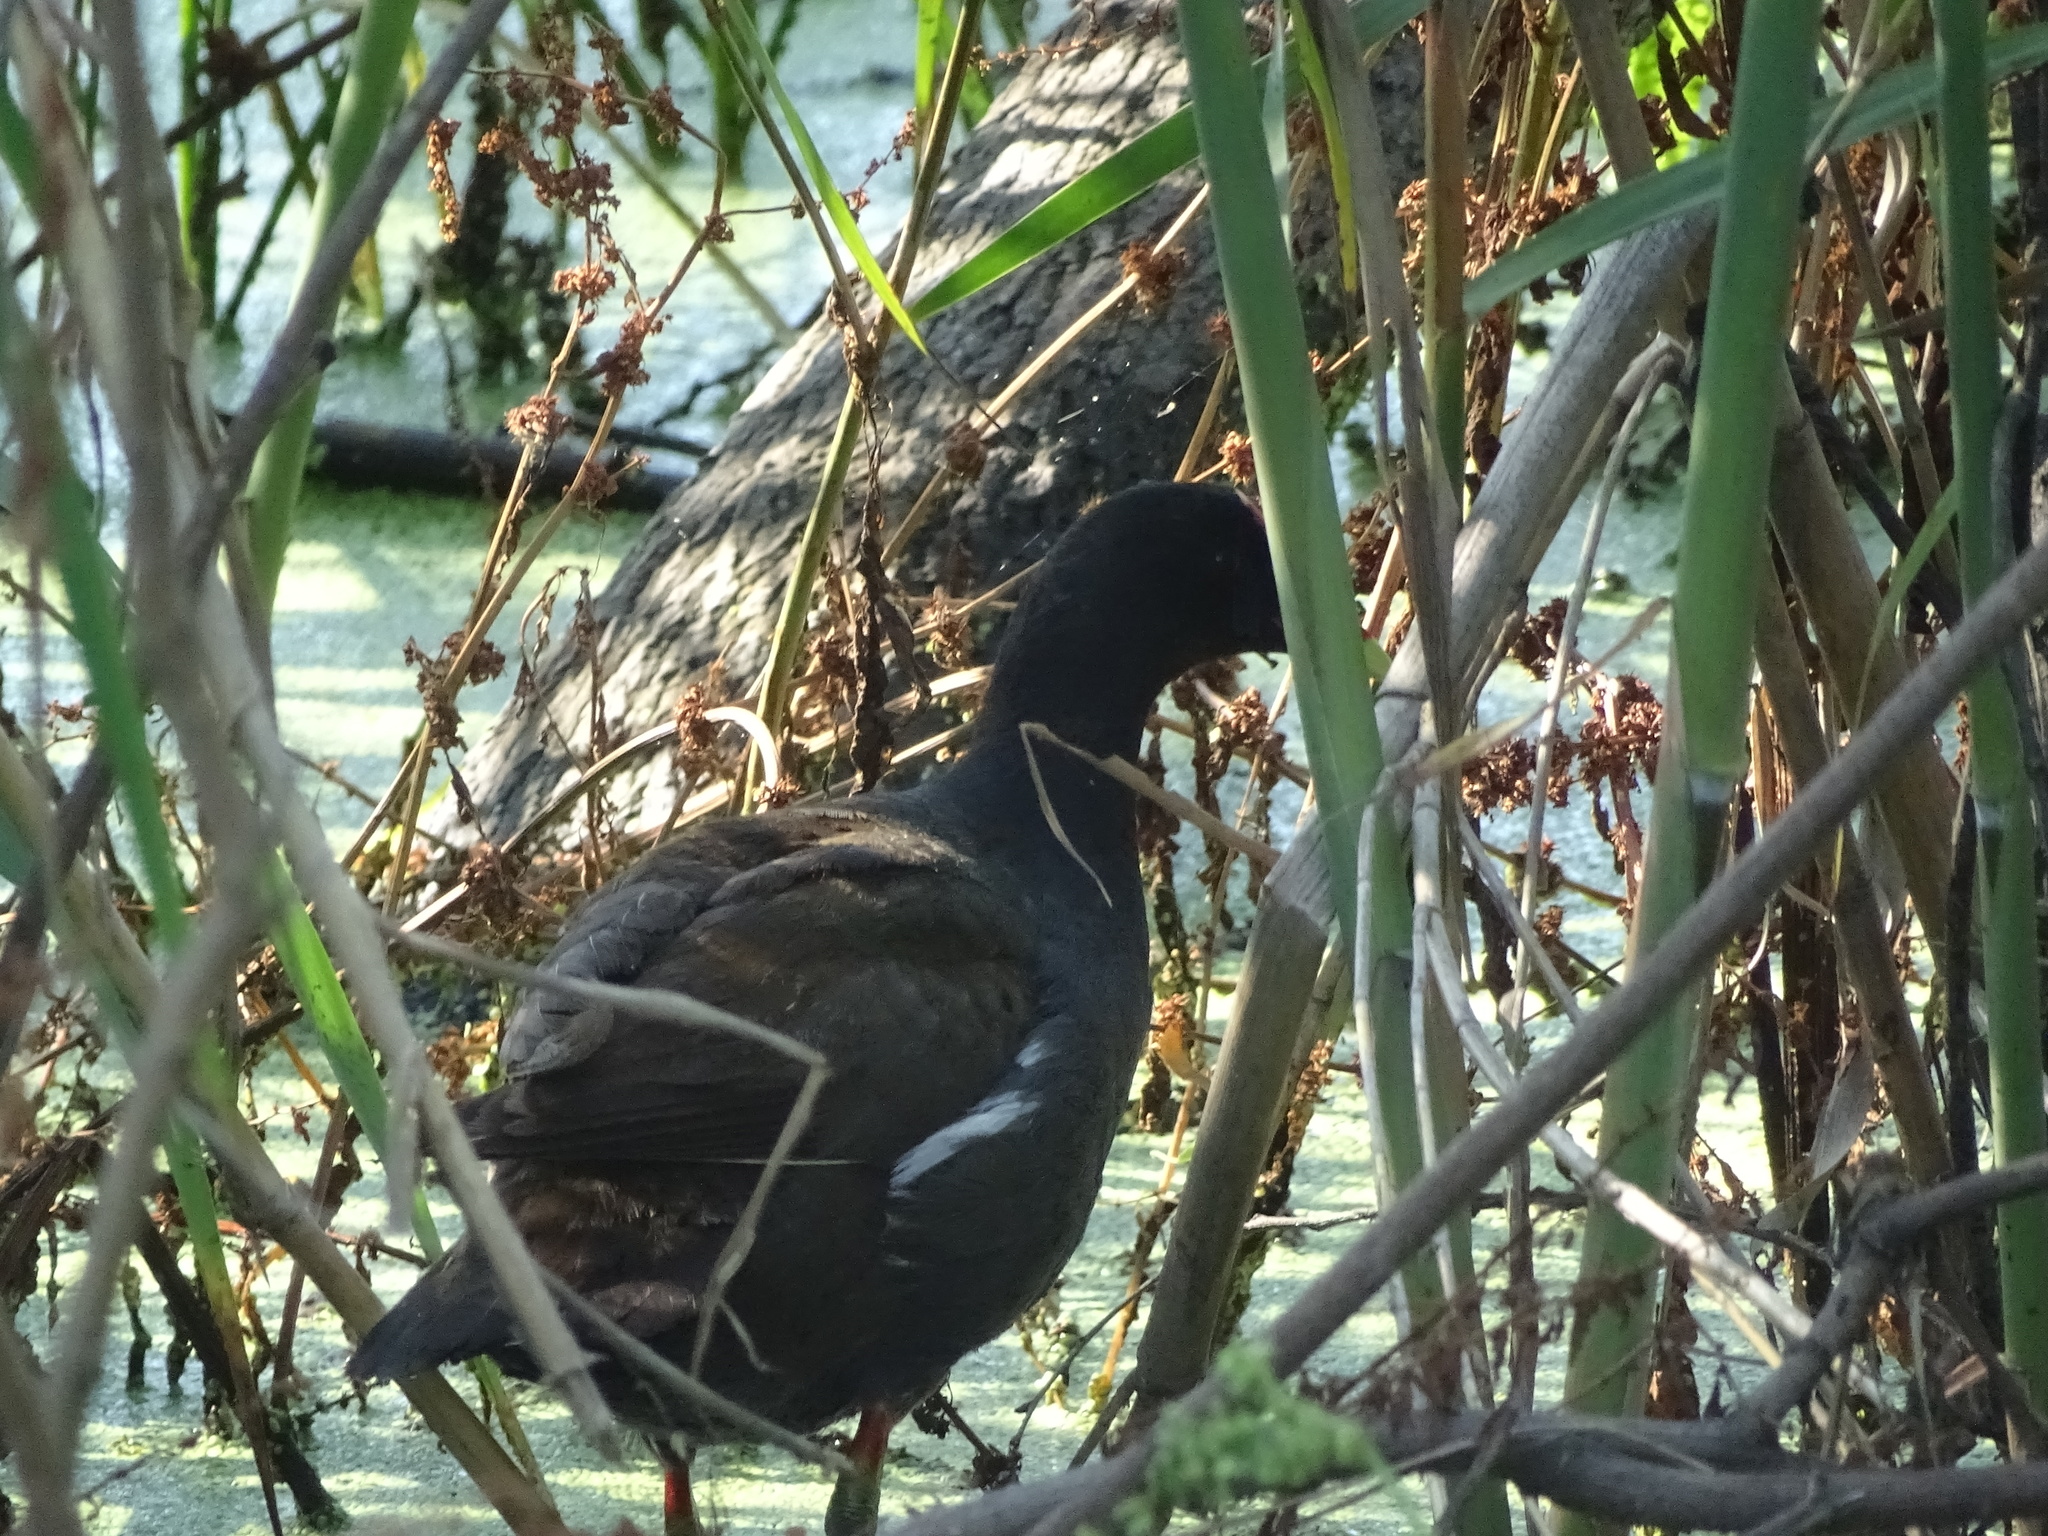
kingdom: Animalia
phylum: Chordata
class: Aves
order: Gruiformes
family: Rallidae
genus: Gallinula
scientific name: Gallinula chloropus
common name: Common moorhen
